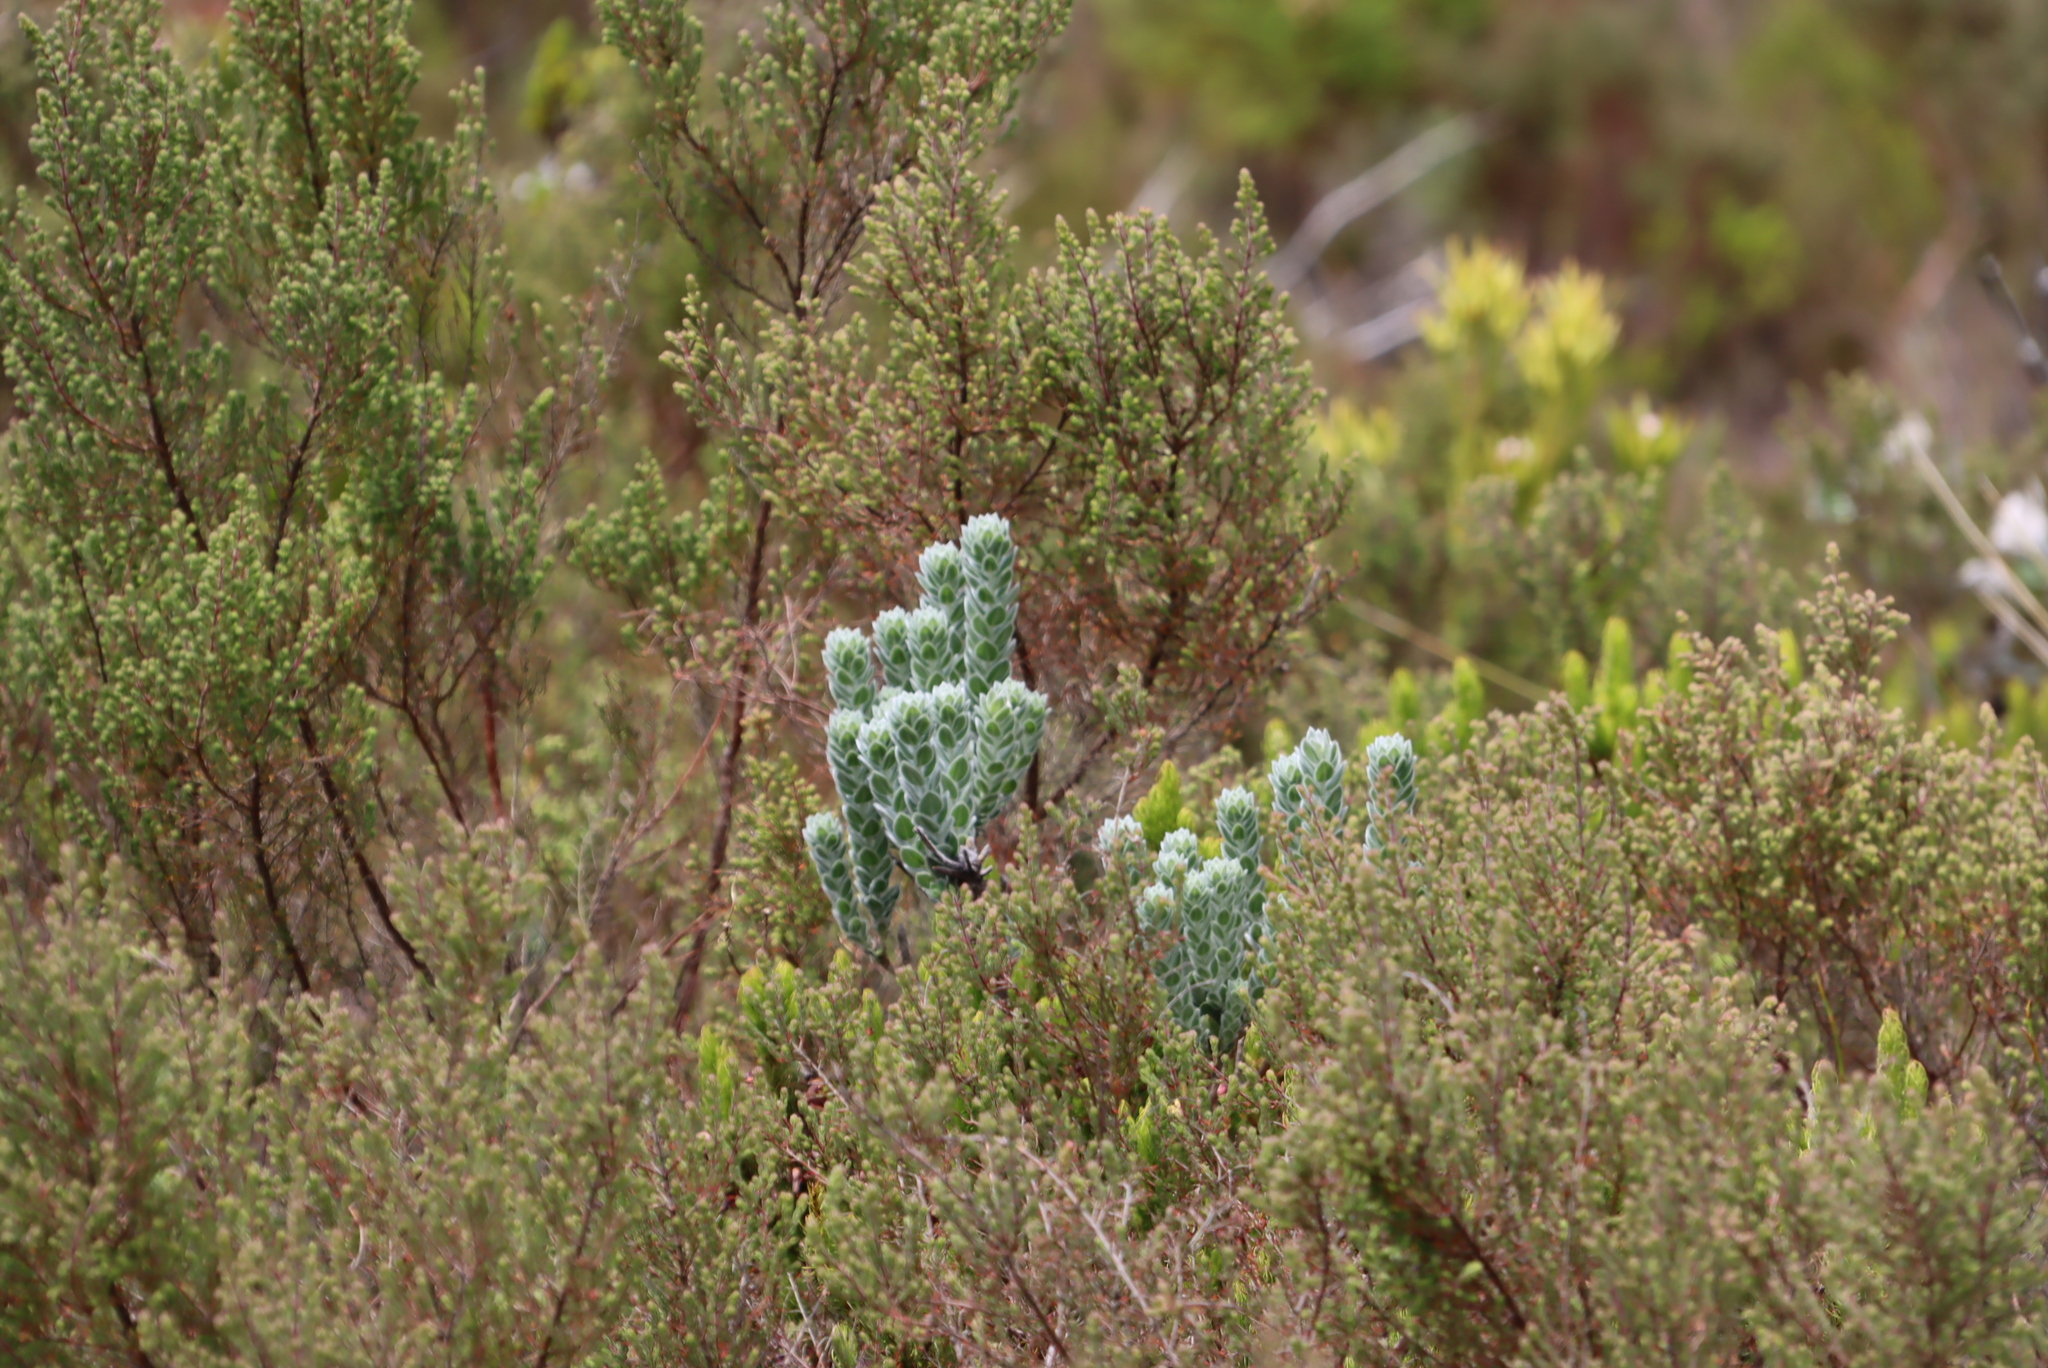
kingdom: Plantae
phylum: Tracheophyta
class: Magnoliopsida
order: Fabales
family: Fabaceae
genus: Xiphotheca
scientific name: Xiphotheca fruticosa
